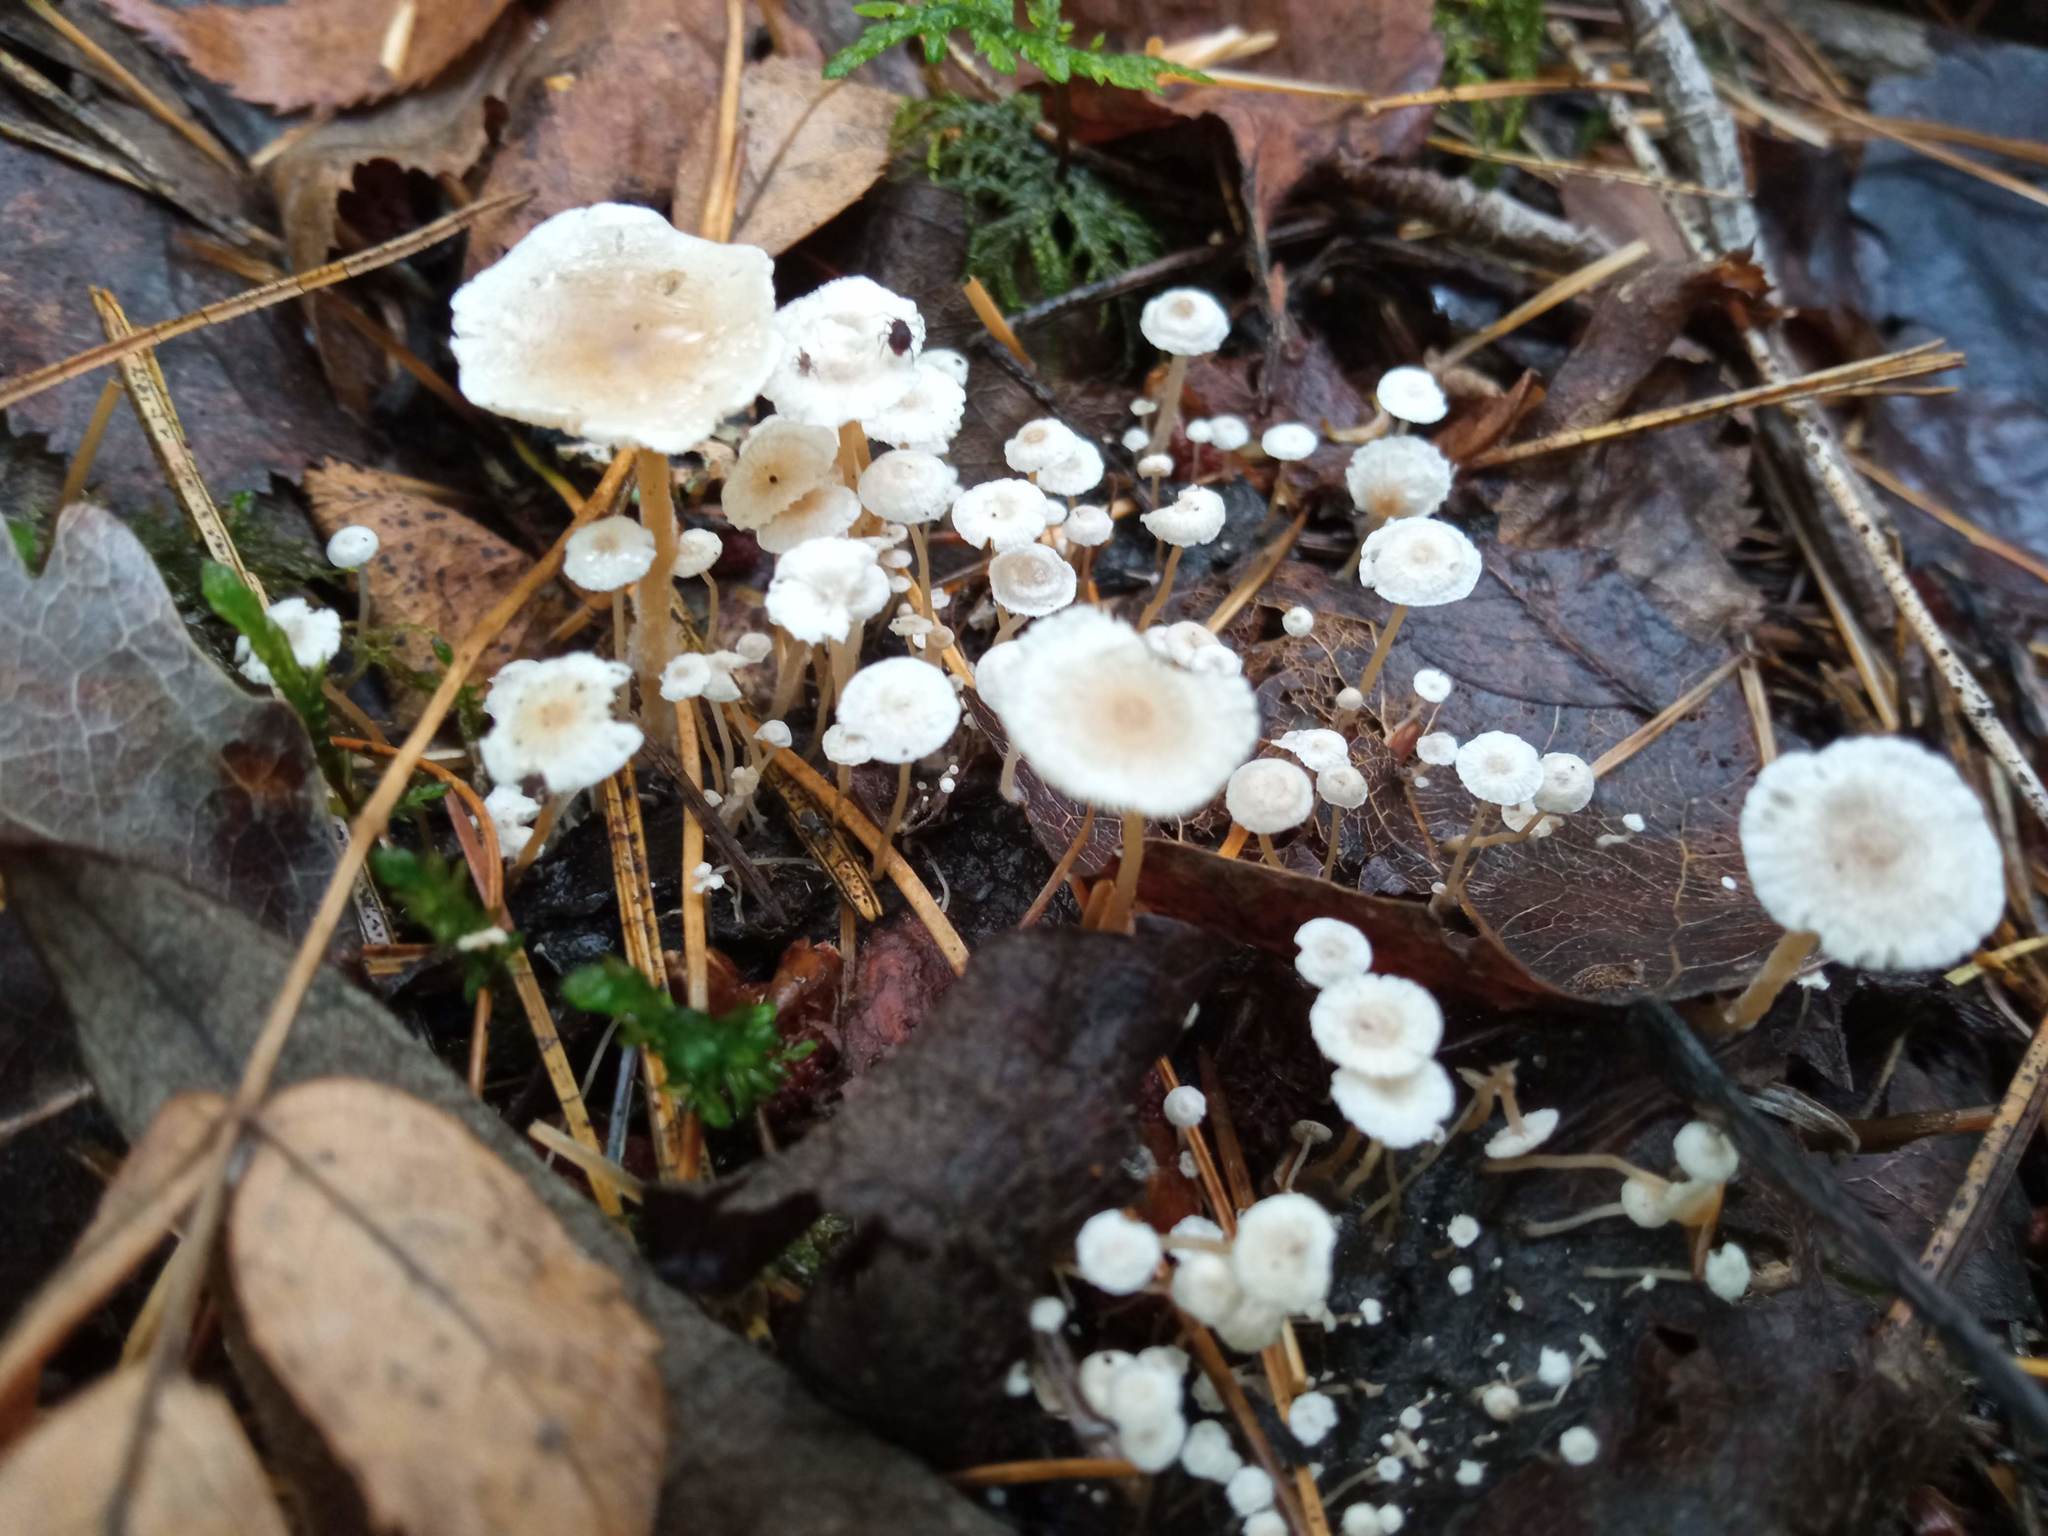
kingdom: Fungi
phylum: Basidiomycota
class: Agaricomycetes
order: Agaricales
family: Tricholomataceae
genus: Collybia
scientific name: Collybia cirrhata
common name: Piggyback shanklet
